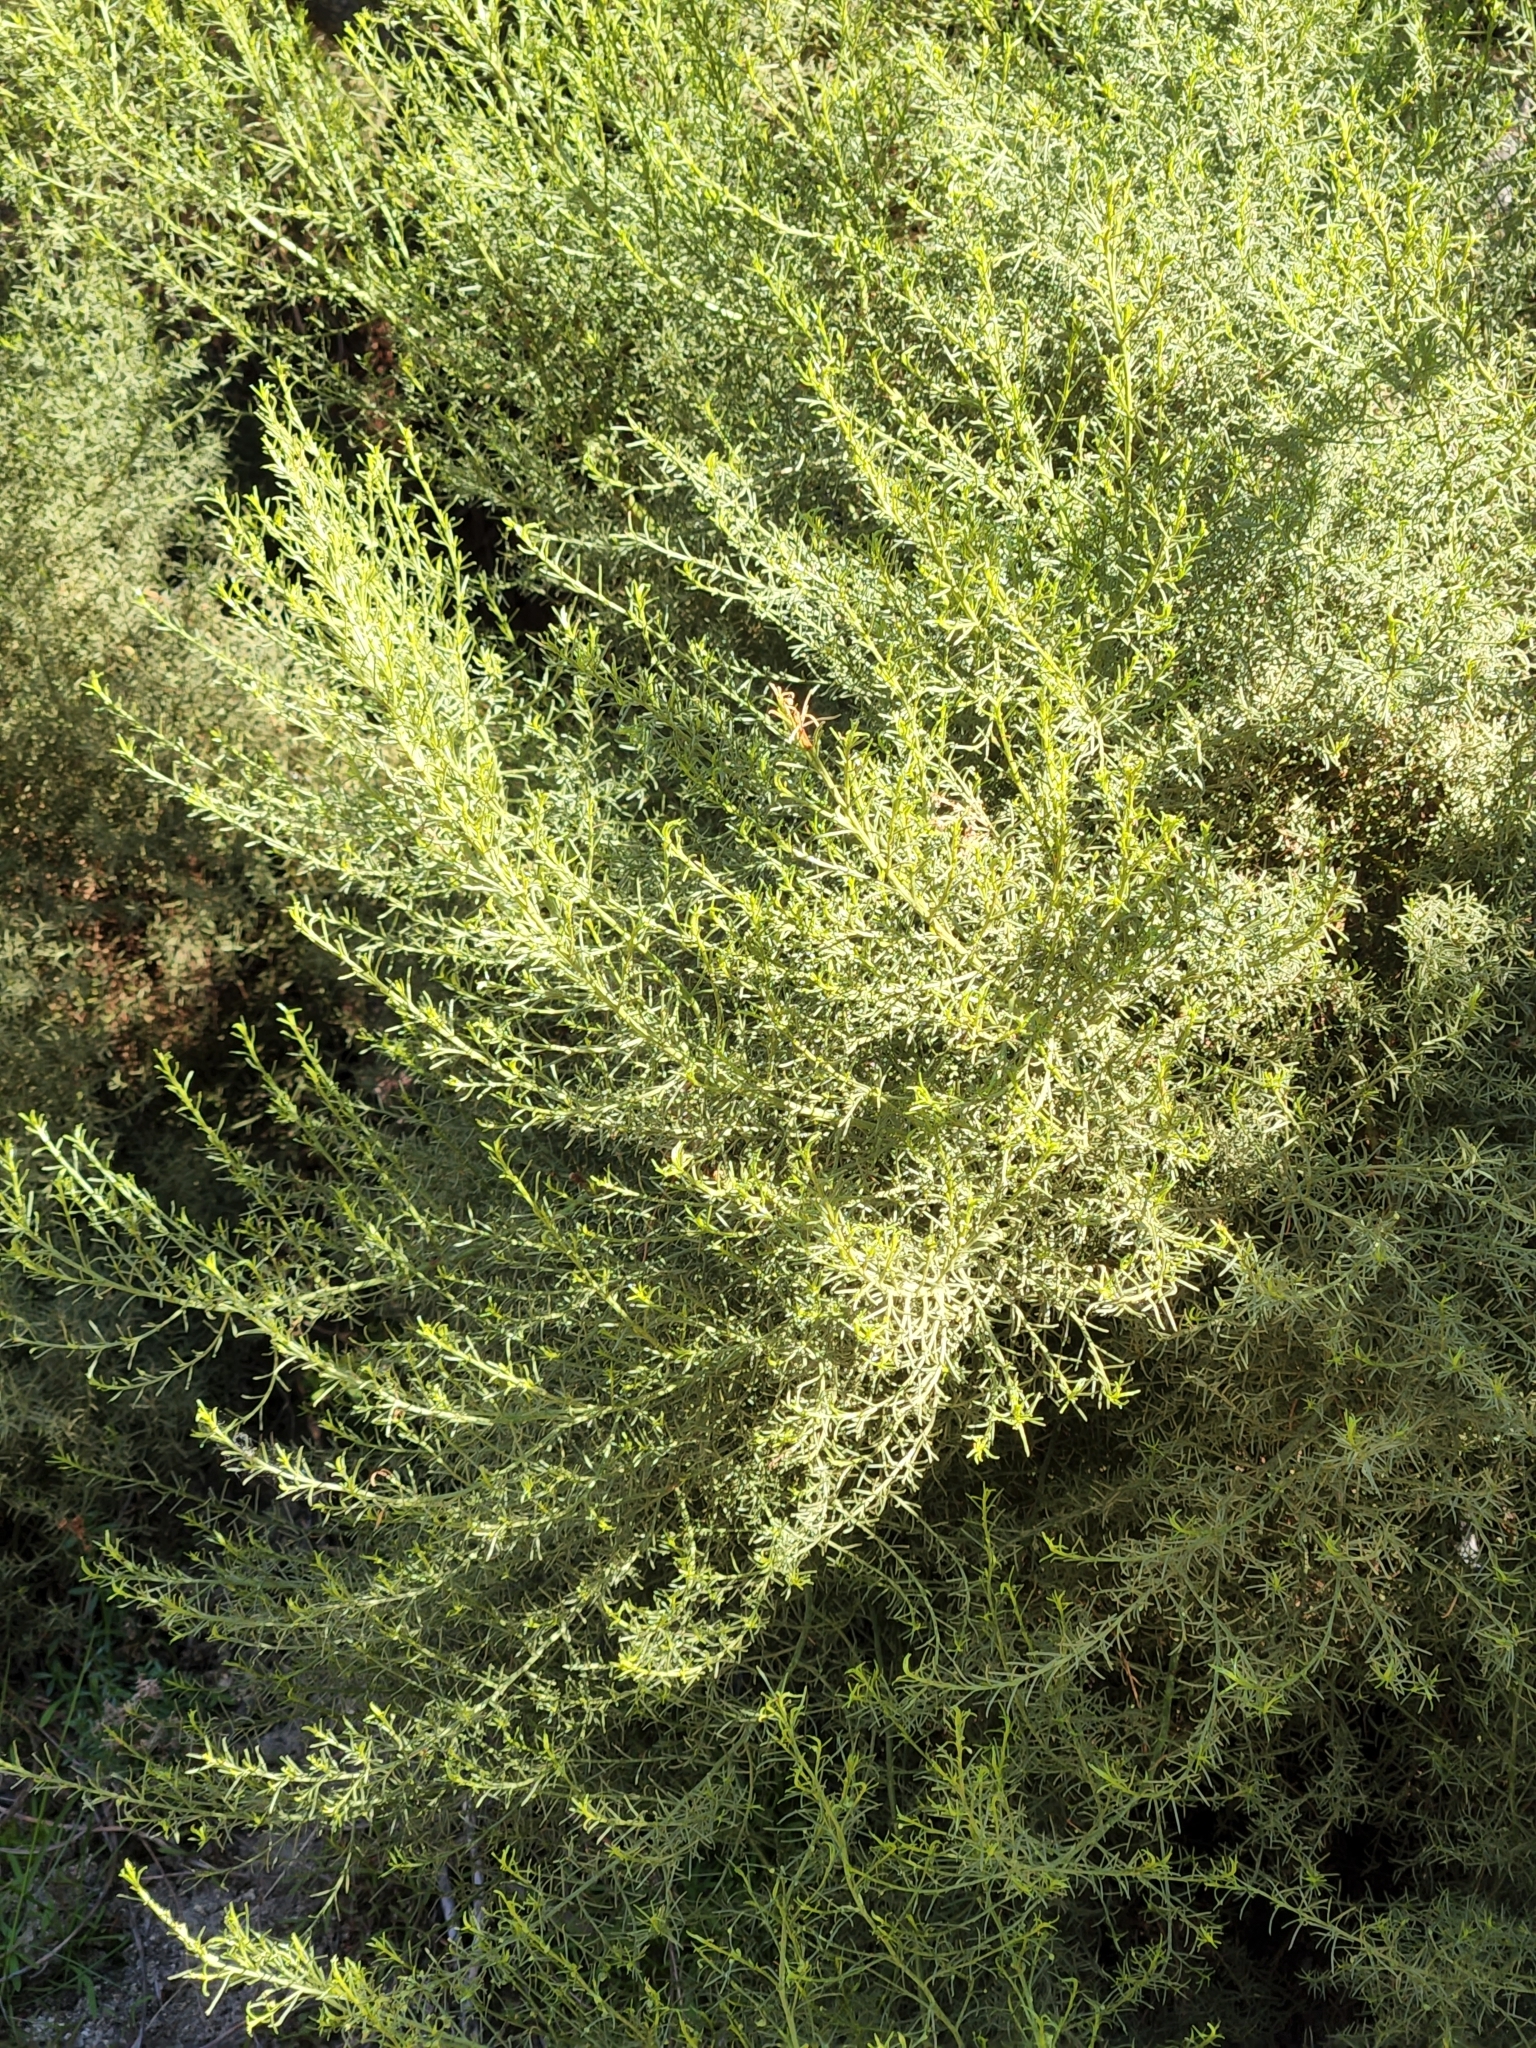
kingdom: Plantae
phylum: Tracheophyta
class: Magnoliopsida
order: Rosales
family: Rosaceae
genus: Adenostoma
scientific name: Adenostoma sparsifolium
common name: Red shank
